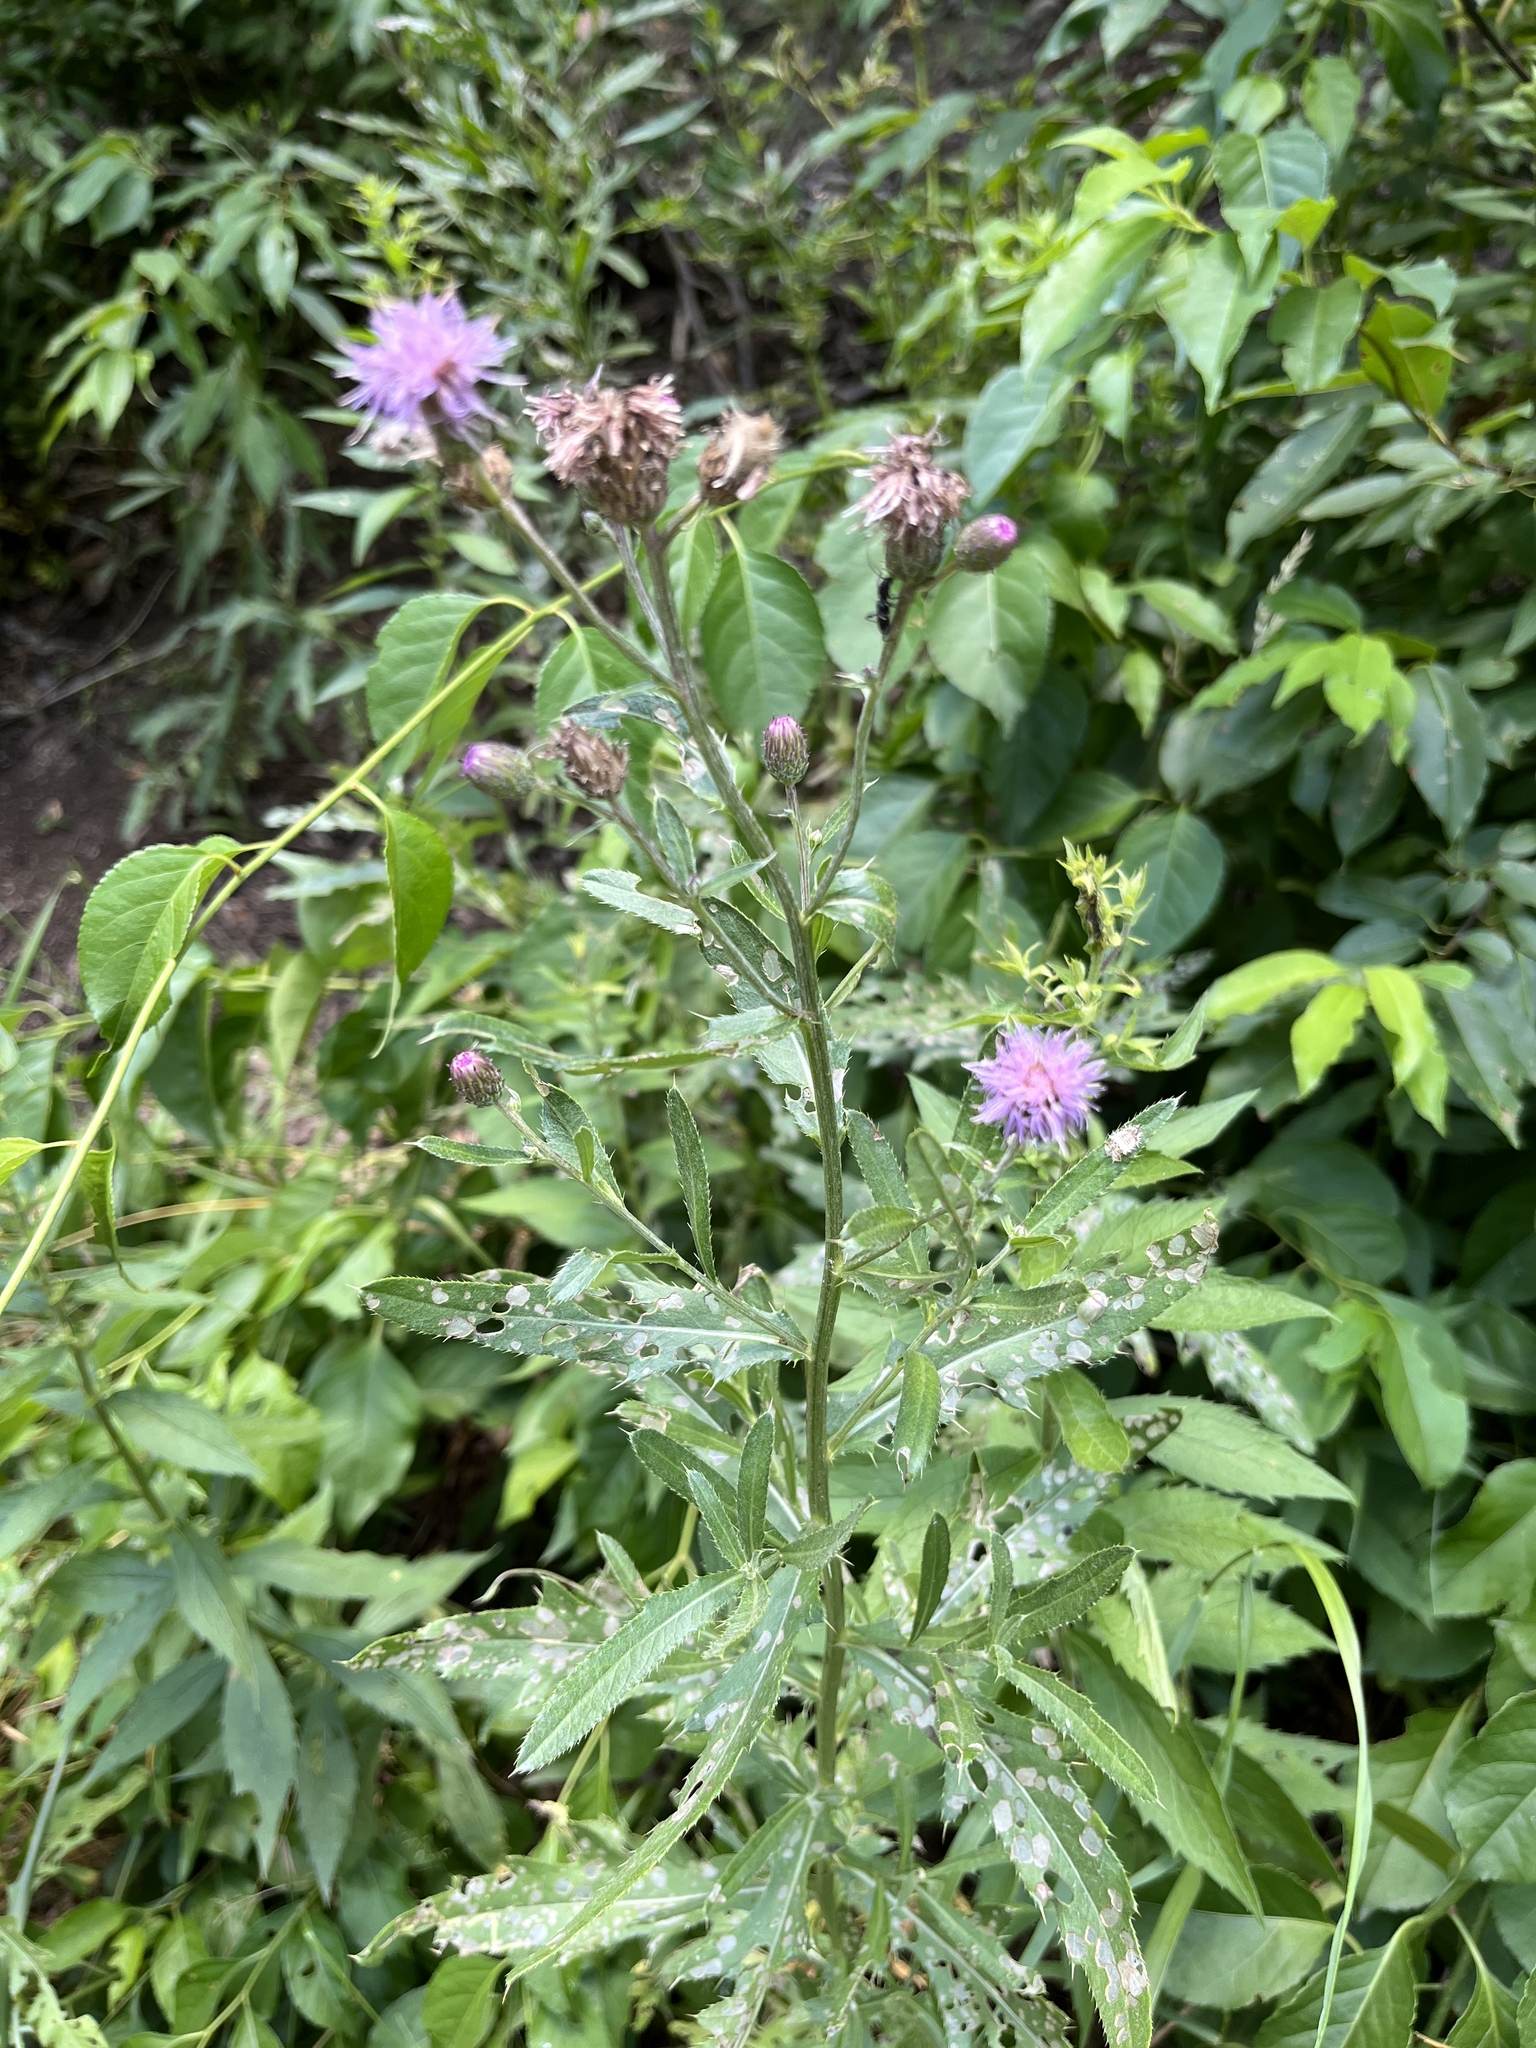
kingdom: Plantae
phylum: Tracheophyta
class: Magnoliopsida
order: Asterales
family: Asteraceae
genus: Cirsium
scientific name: Cirsium arvense
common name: Creeping thistle
